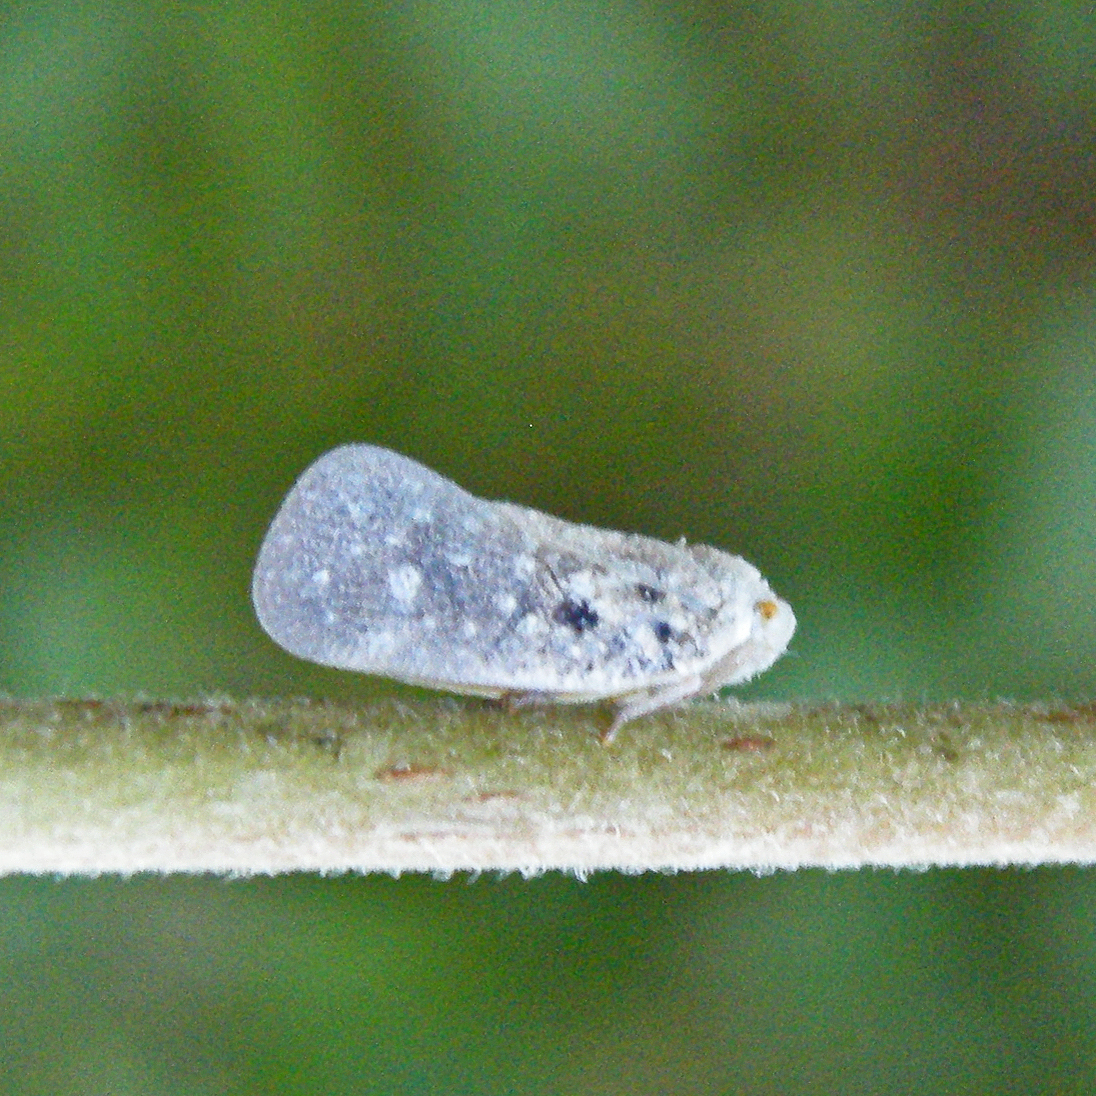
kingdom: Animalia
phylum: Arthropoda
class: Insecta
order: Hemiptera
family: Flatidae
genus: Metcalfa
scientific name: Metcalfa pruinosa
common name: Citrus flatid planthopper
